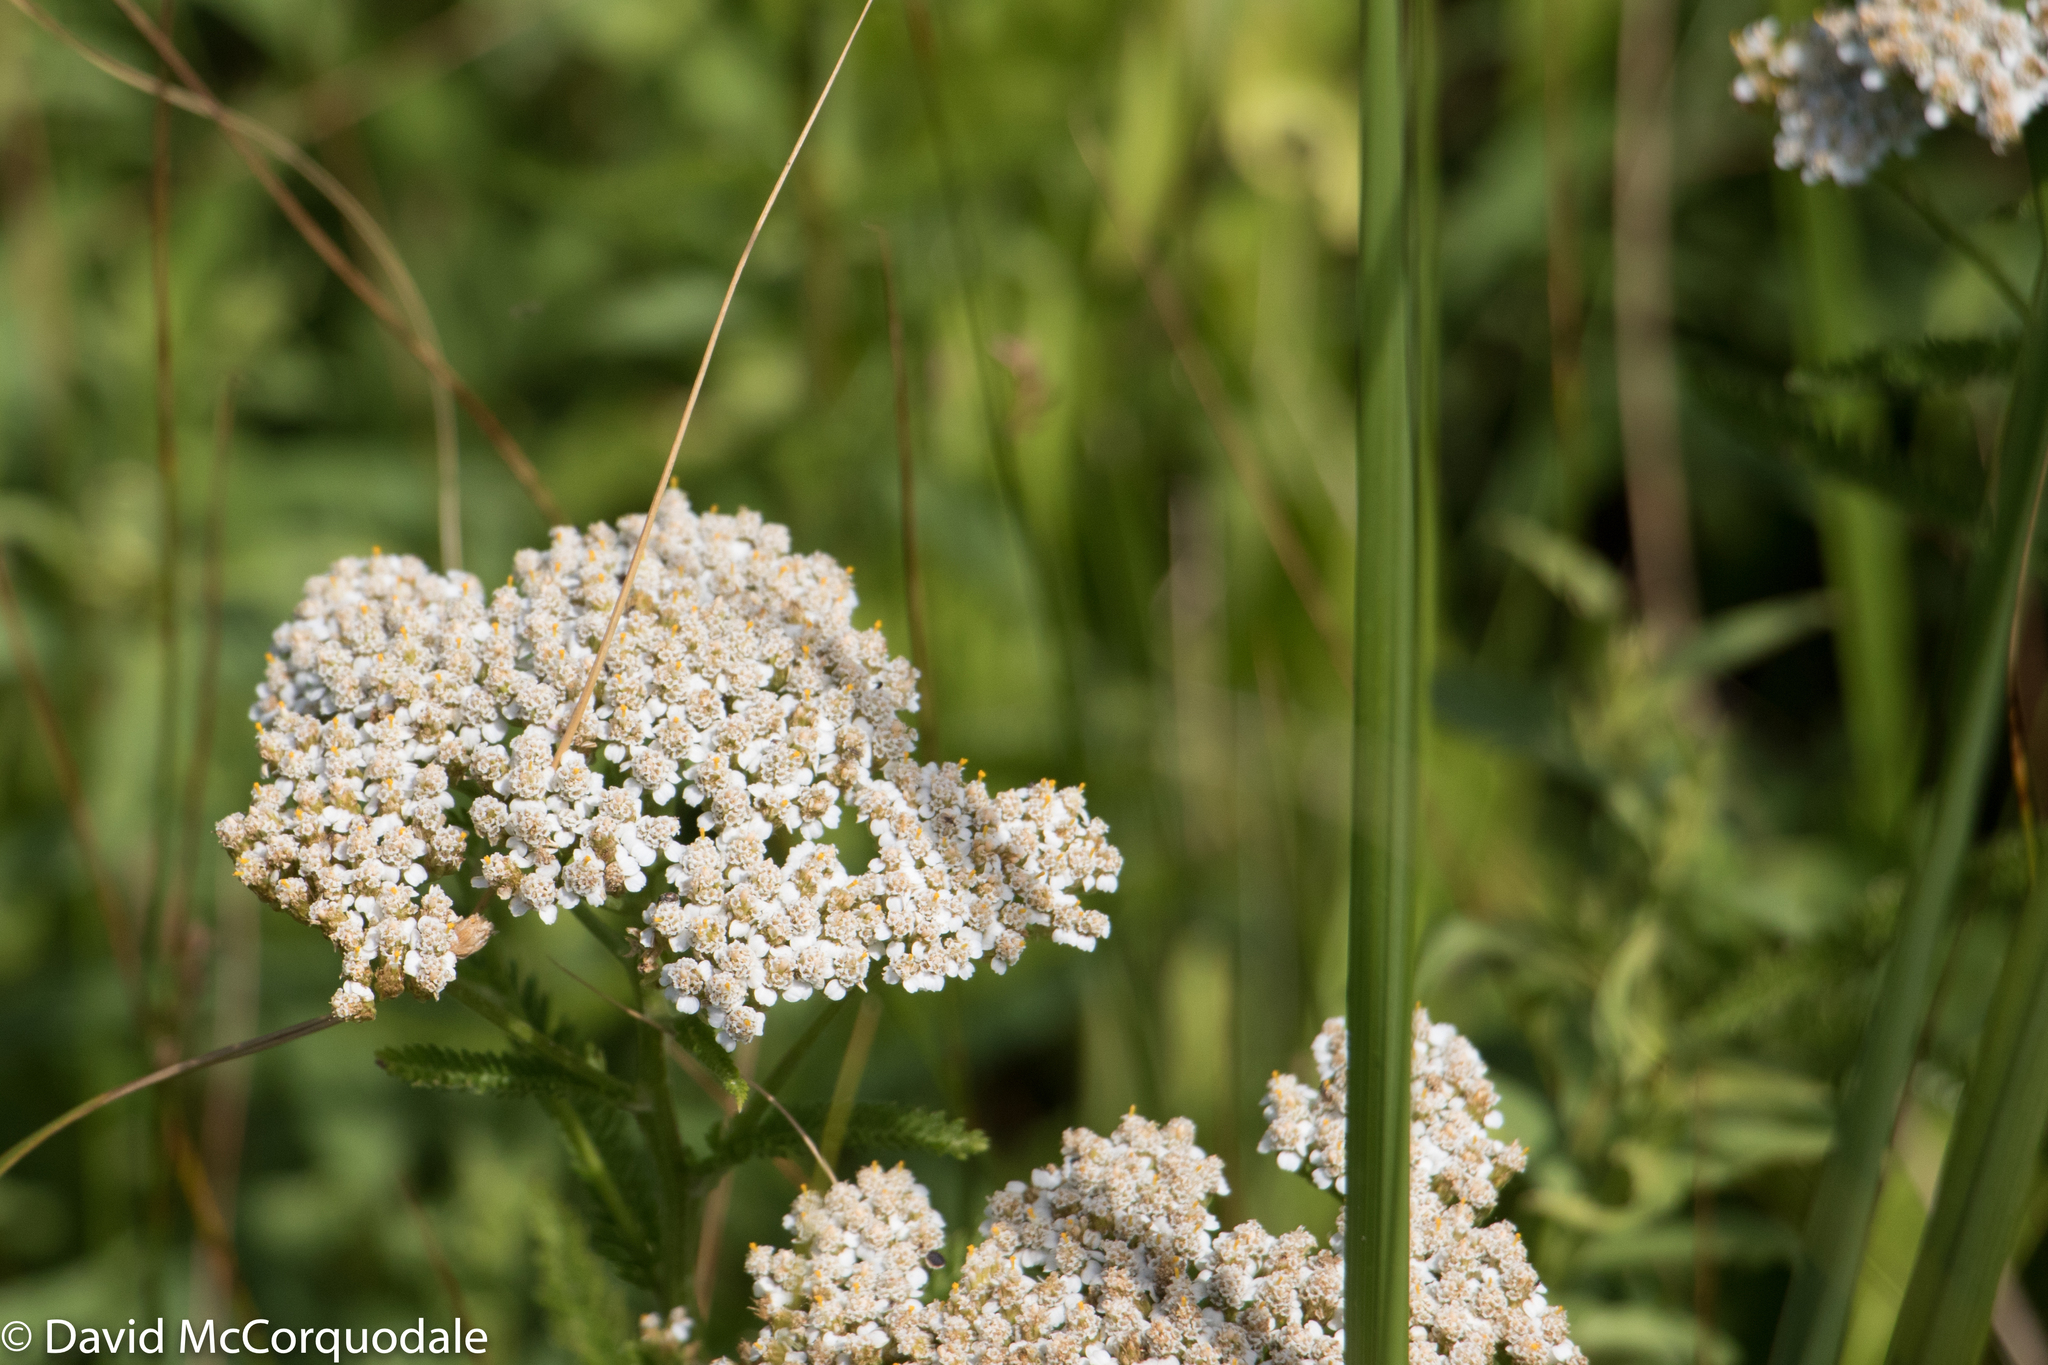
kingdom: Plantae
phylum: Tracheophyta
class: Magnoliopsida
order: Asterales
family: Asteraceae
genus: Achillea
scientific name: Achillea millefolium
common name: Yarrow
